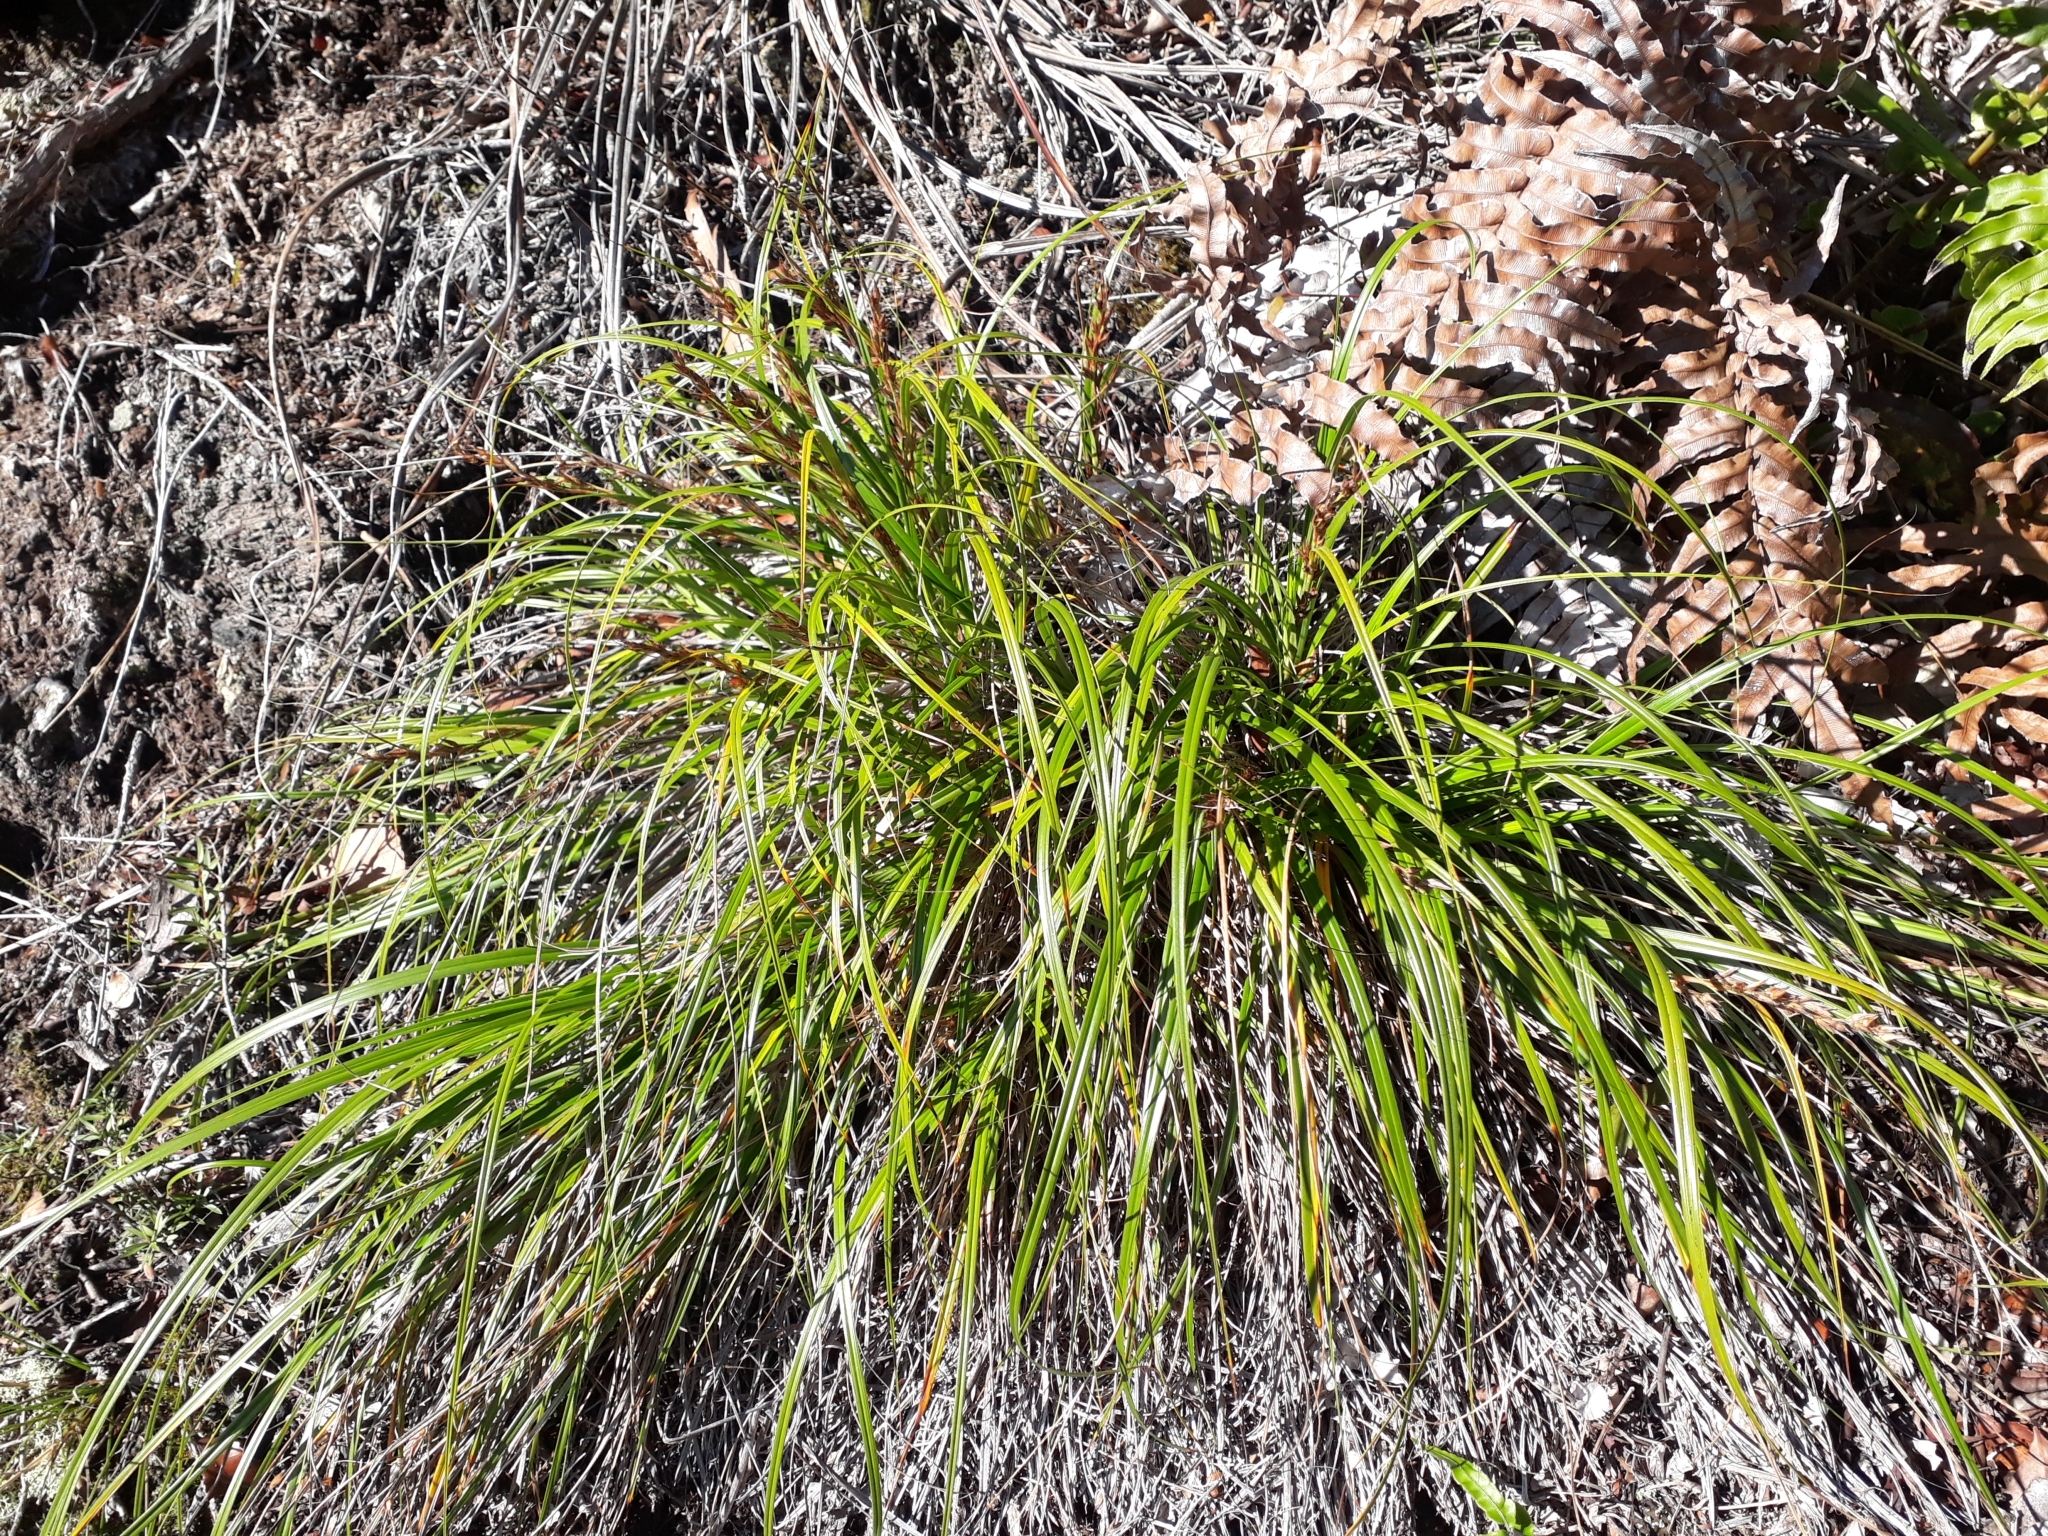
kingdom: Plantae
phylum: Tracheophyta
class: Liliopsida
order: Poales
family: Cyperaceae
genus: Morelotia
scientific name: Morelotia affinis
